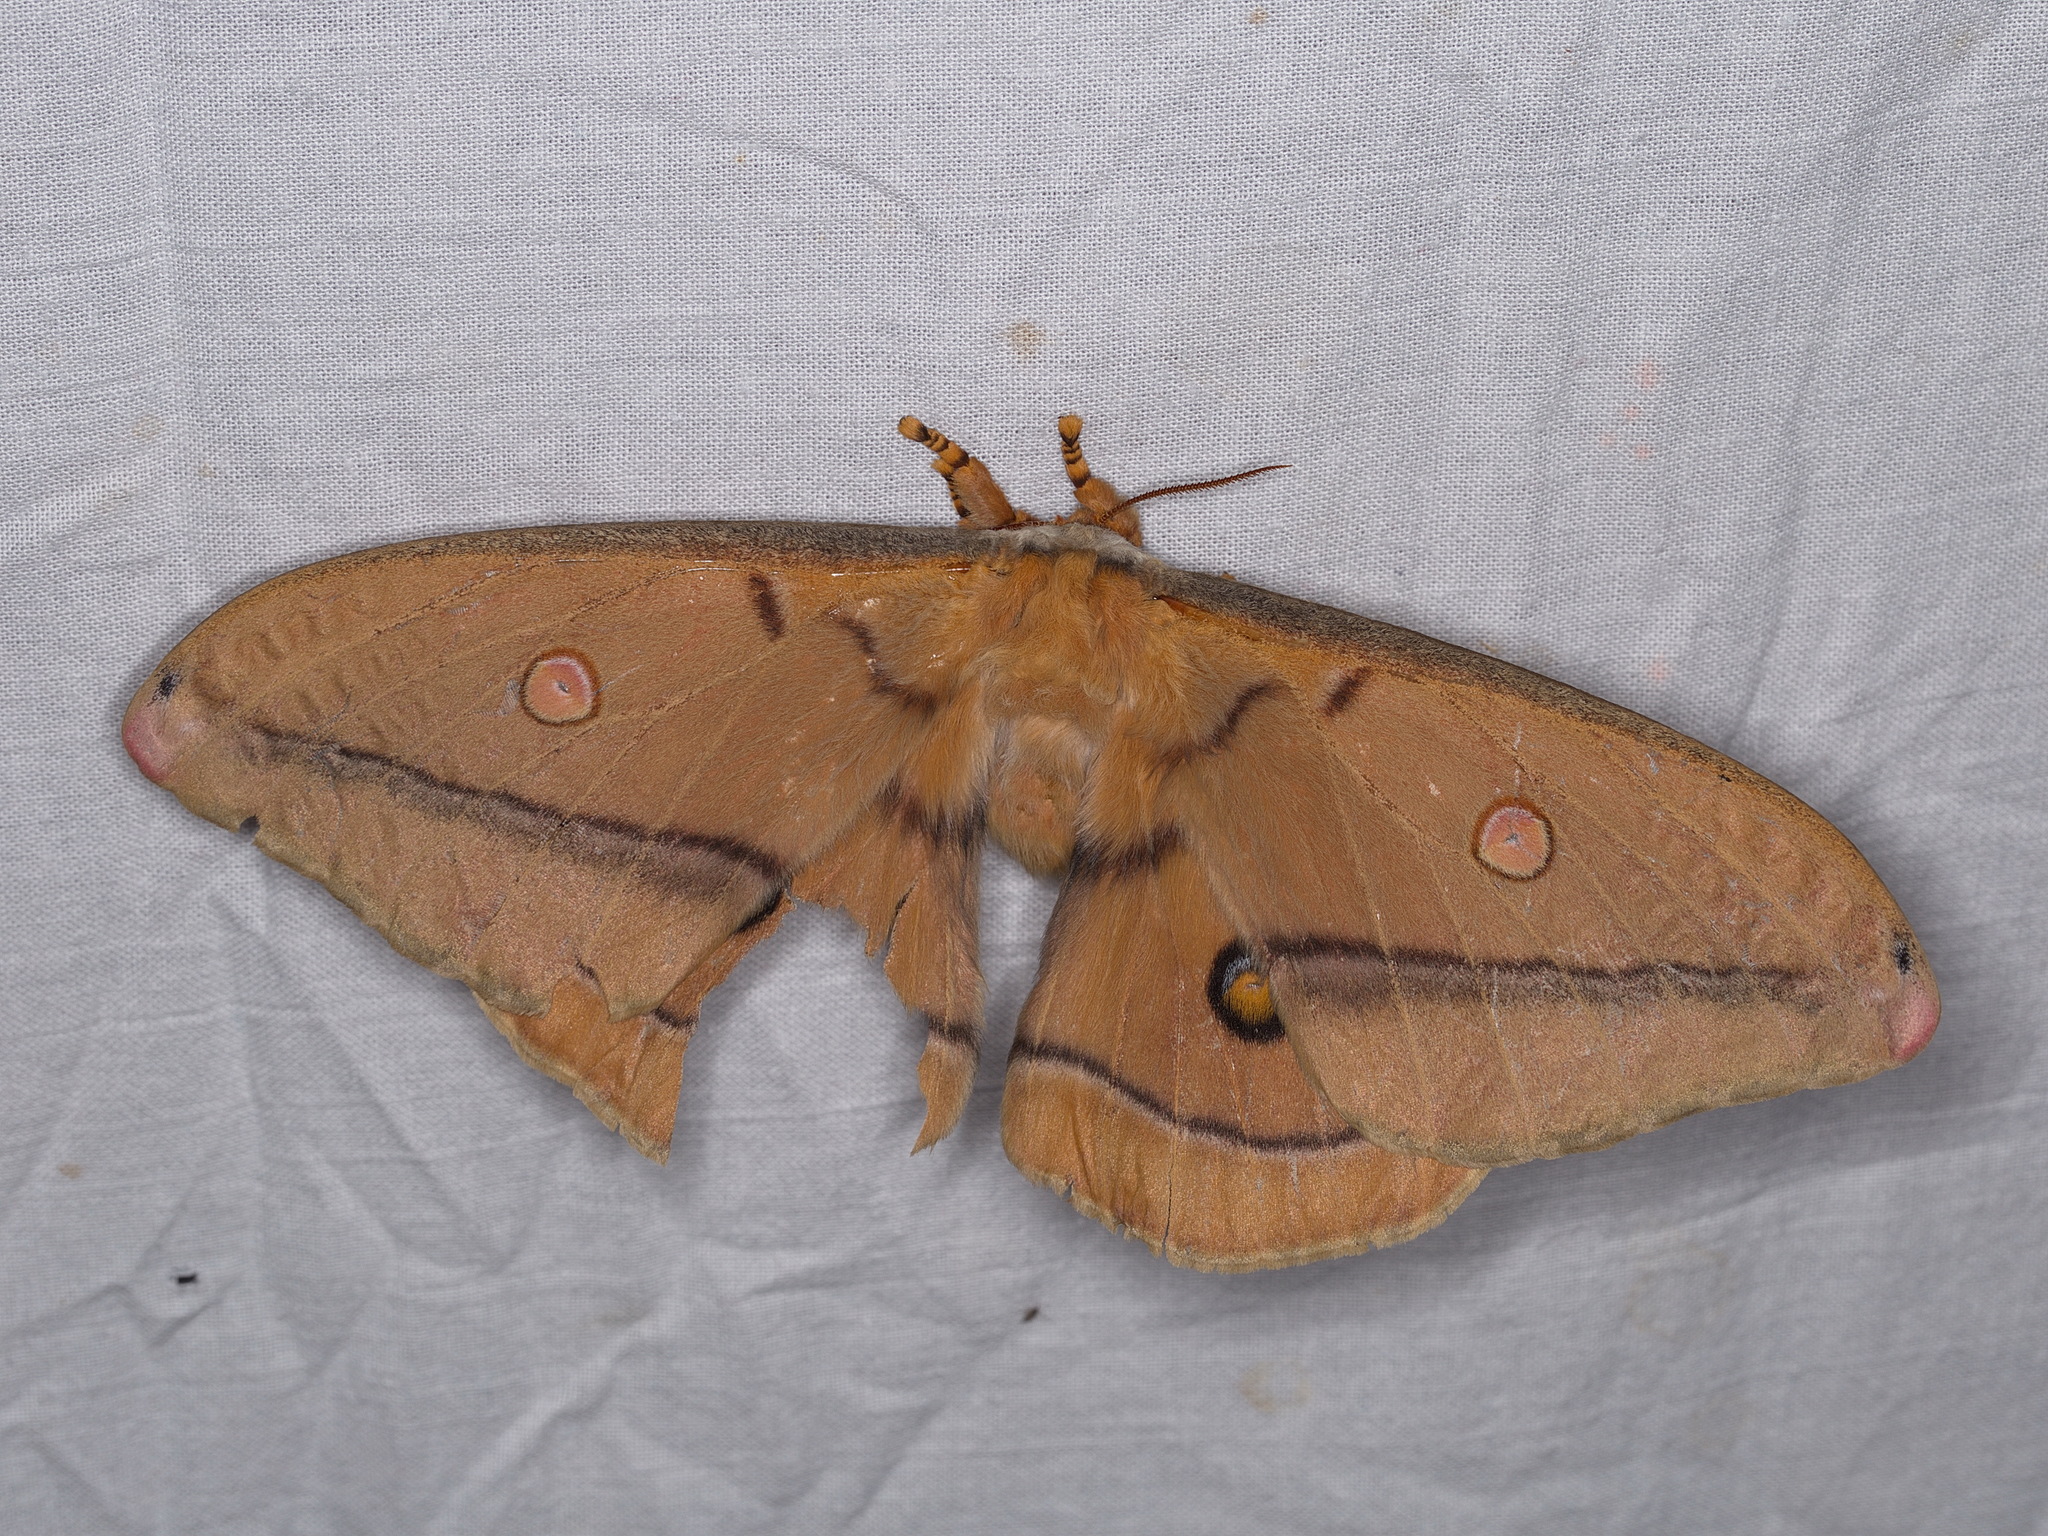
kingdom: Animalia
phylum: Arthropoda
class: Insecta
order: Lepidoptera
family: Saturniidae
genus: Opodiphthera
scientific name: Opodiphthera
